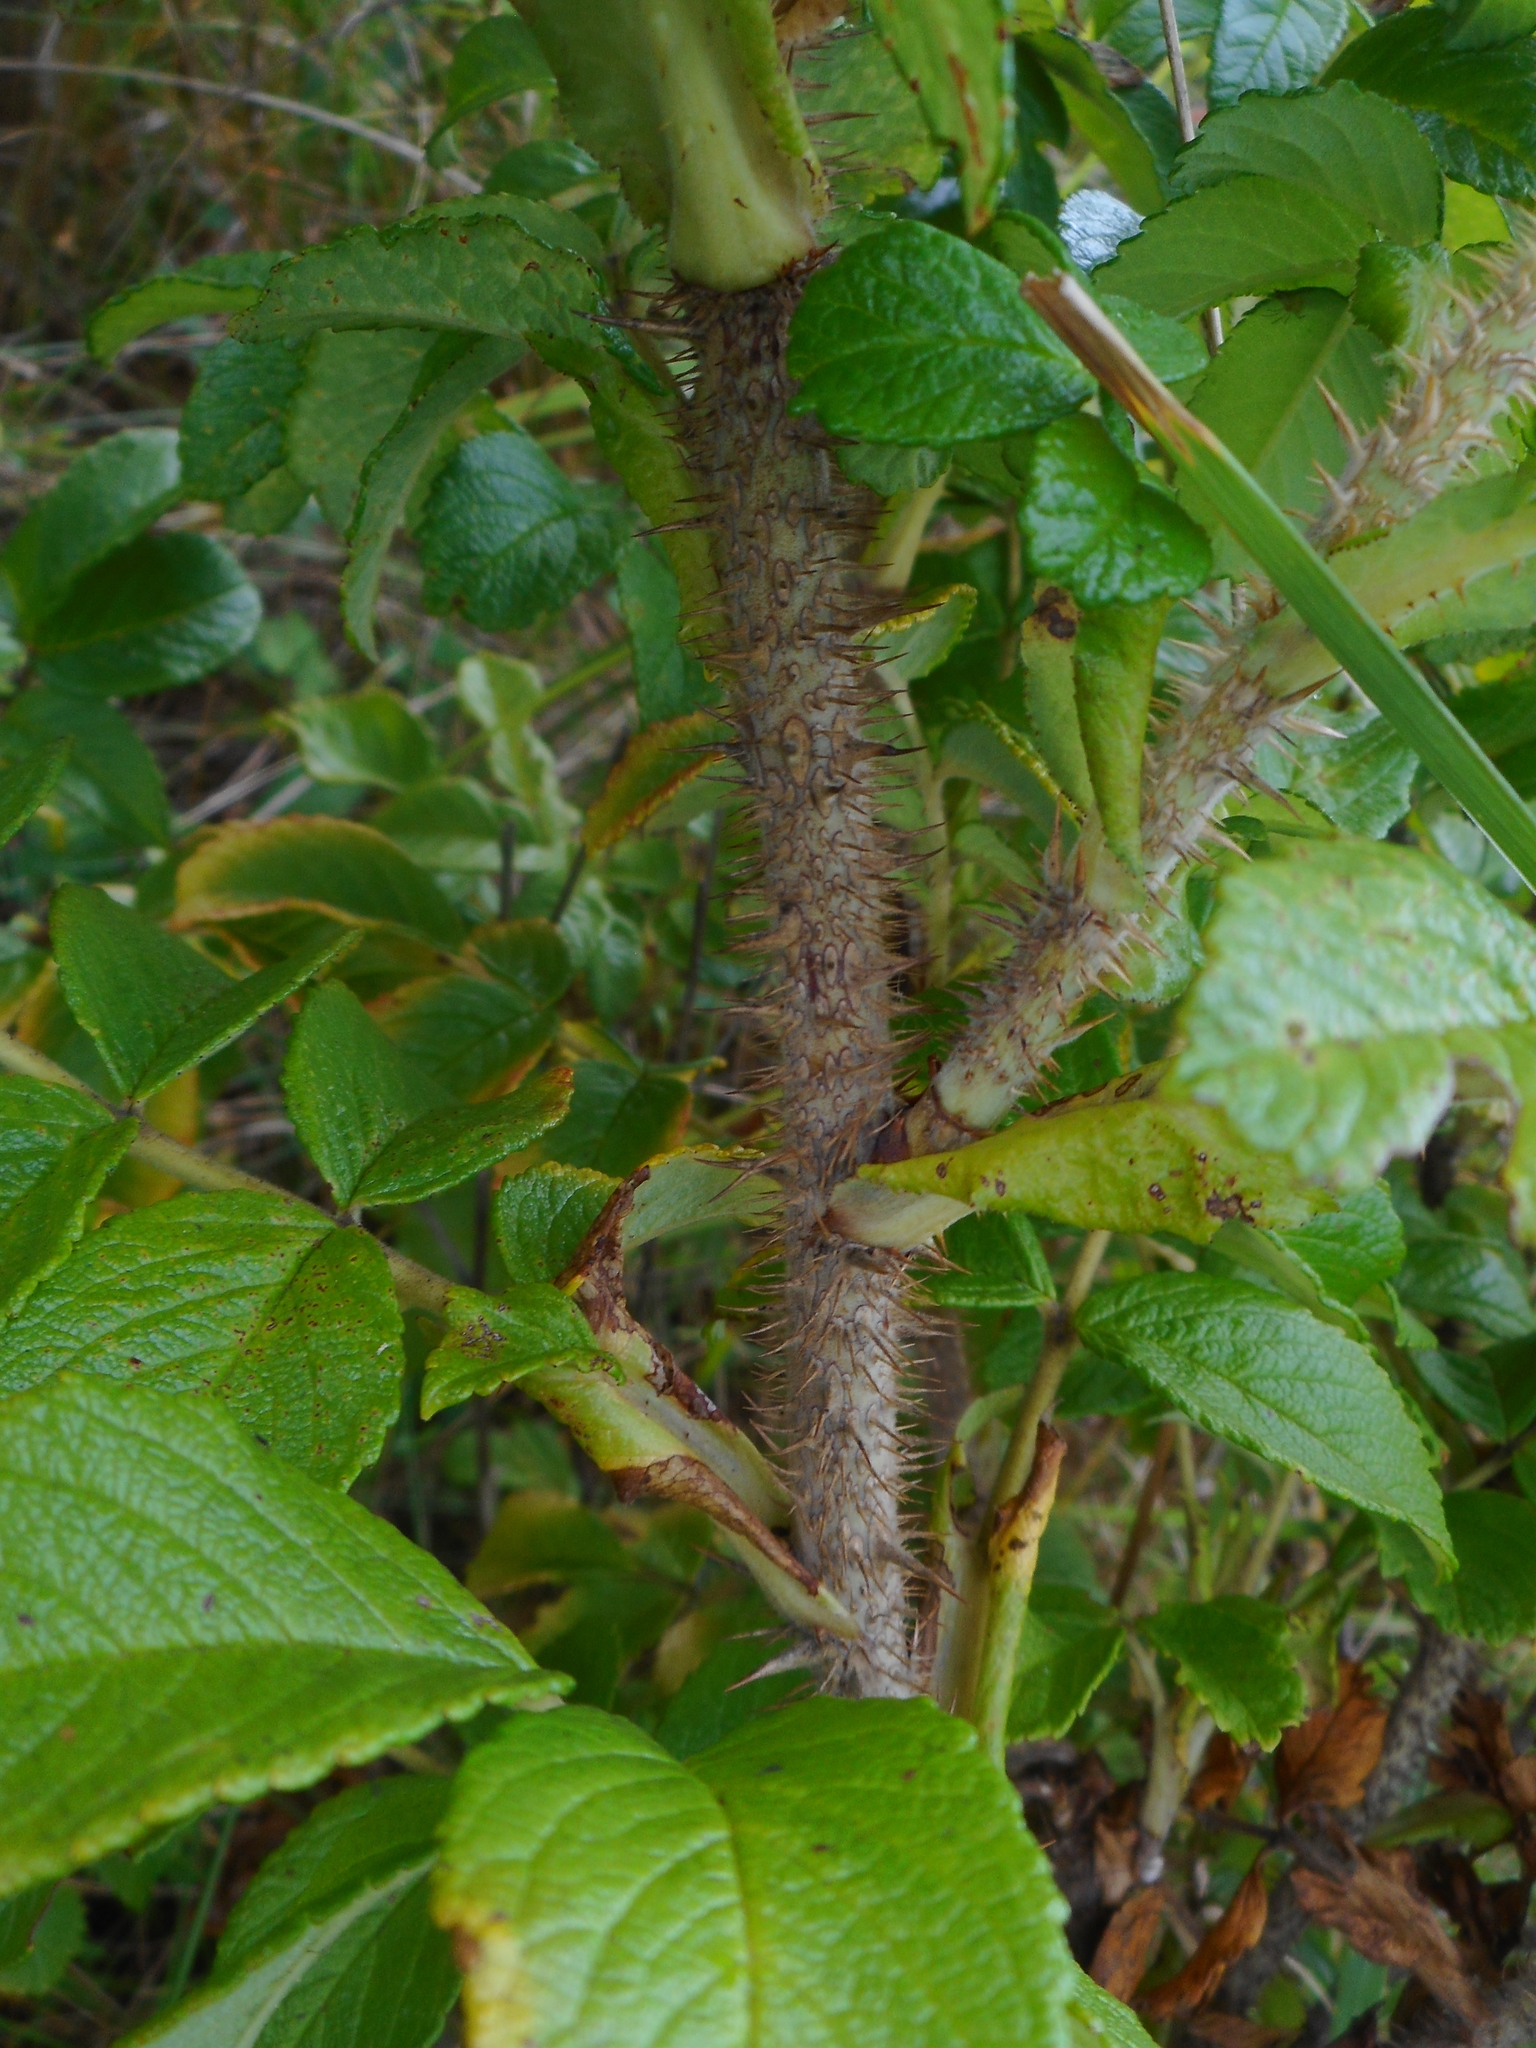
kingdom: Plantae
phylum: Tracheophyta
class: Magnoliopsida
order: Rosales
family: Rosaceae
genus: Rosa
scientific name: Rosa rugosa
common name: Japanese rose
